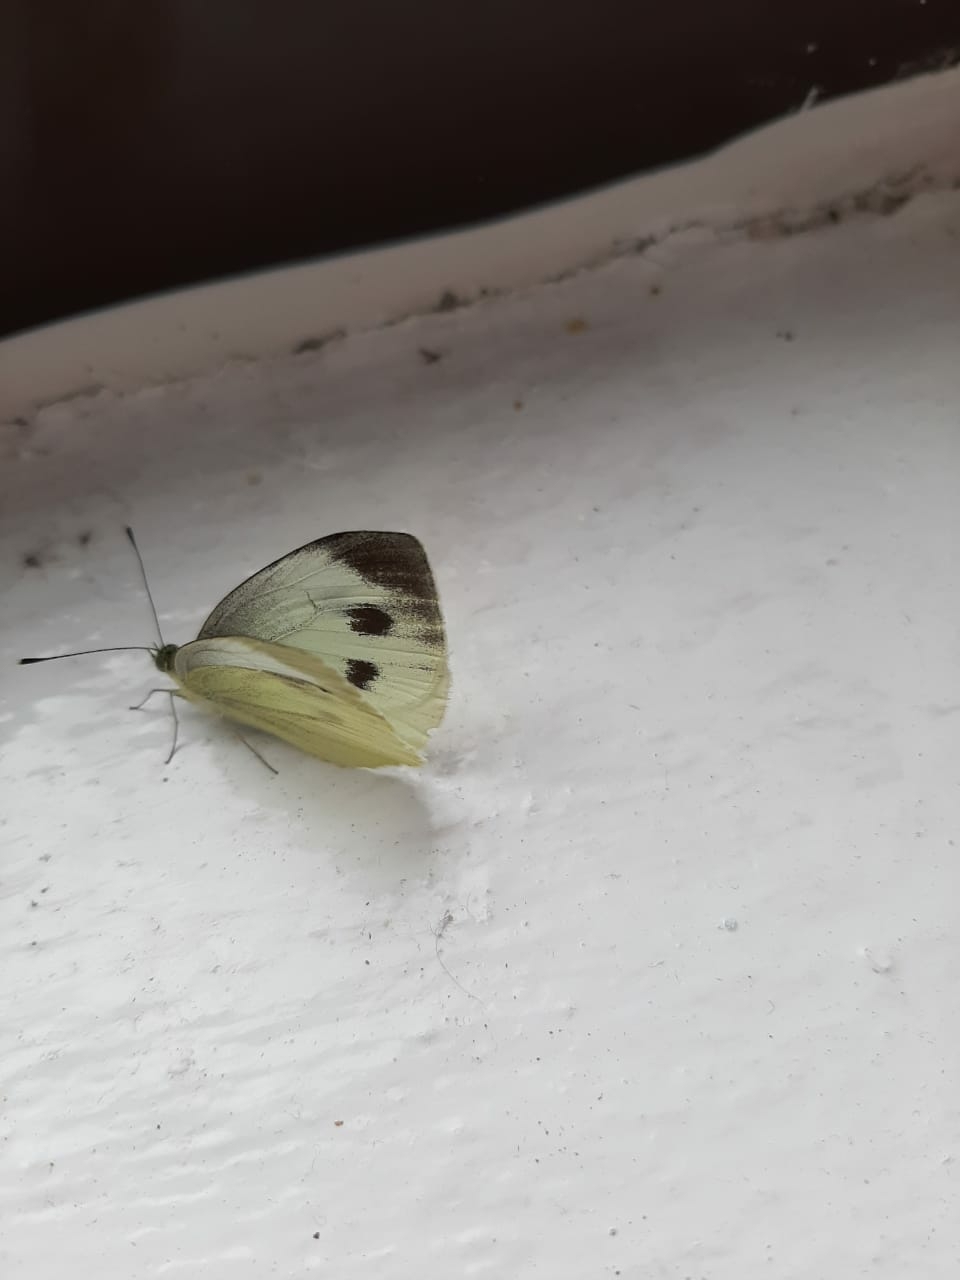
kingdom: Animalia
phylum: Arthropoda
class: Insecta
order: Lepidoptera
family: Pieridae
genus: Pieris
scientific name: Pieris napi
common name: Green-veined white
